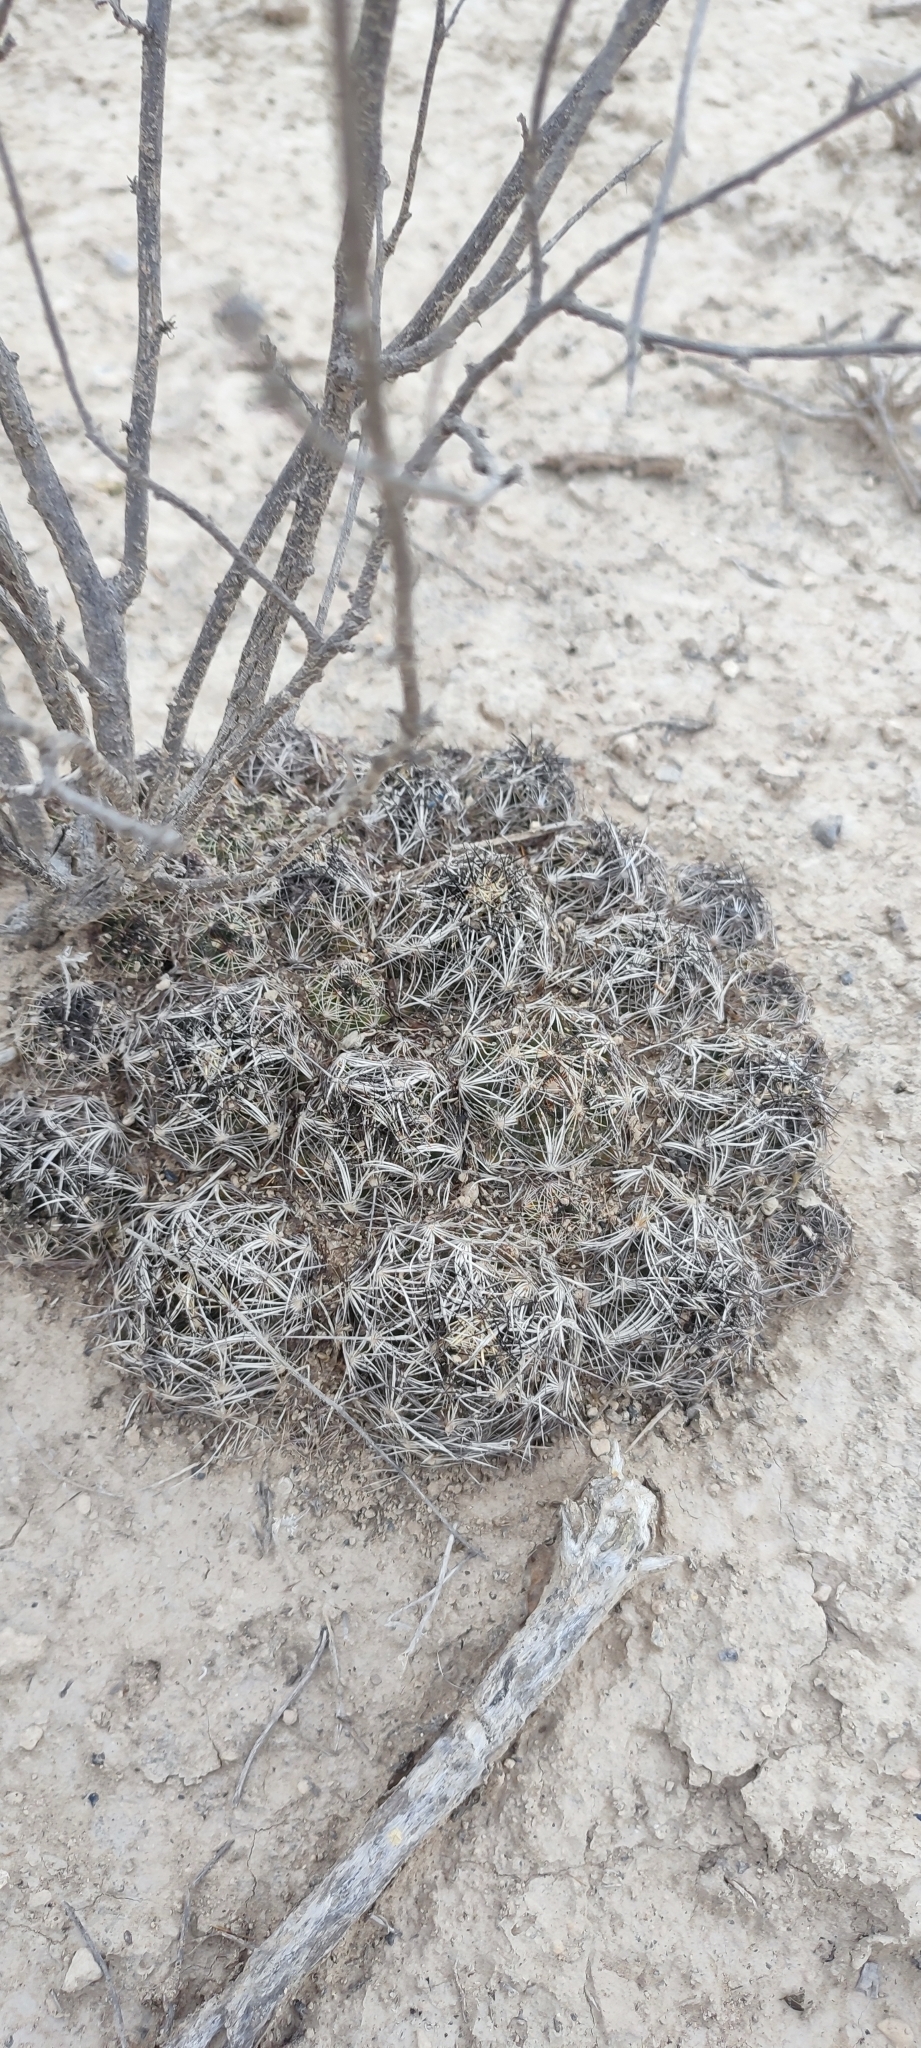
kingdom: Plantae
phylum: Tracheophyta
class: Magnoliopsida
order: Caryophyllales
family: Cactaceae
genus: Coryphantha
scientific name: Coryphantha neglecta
